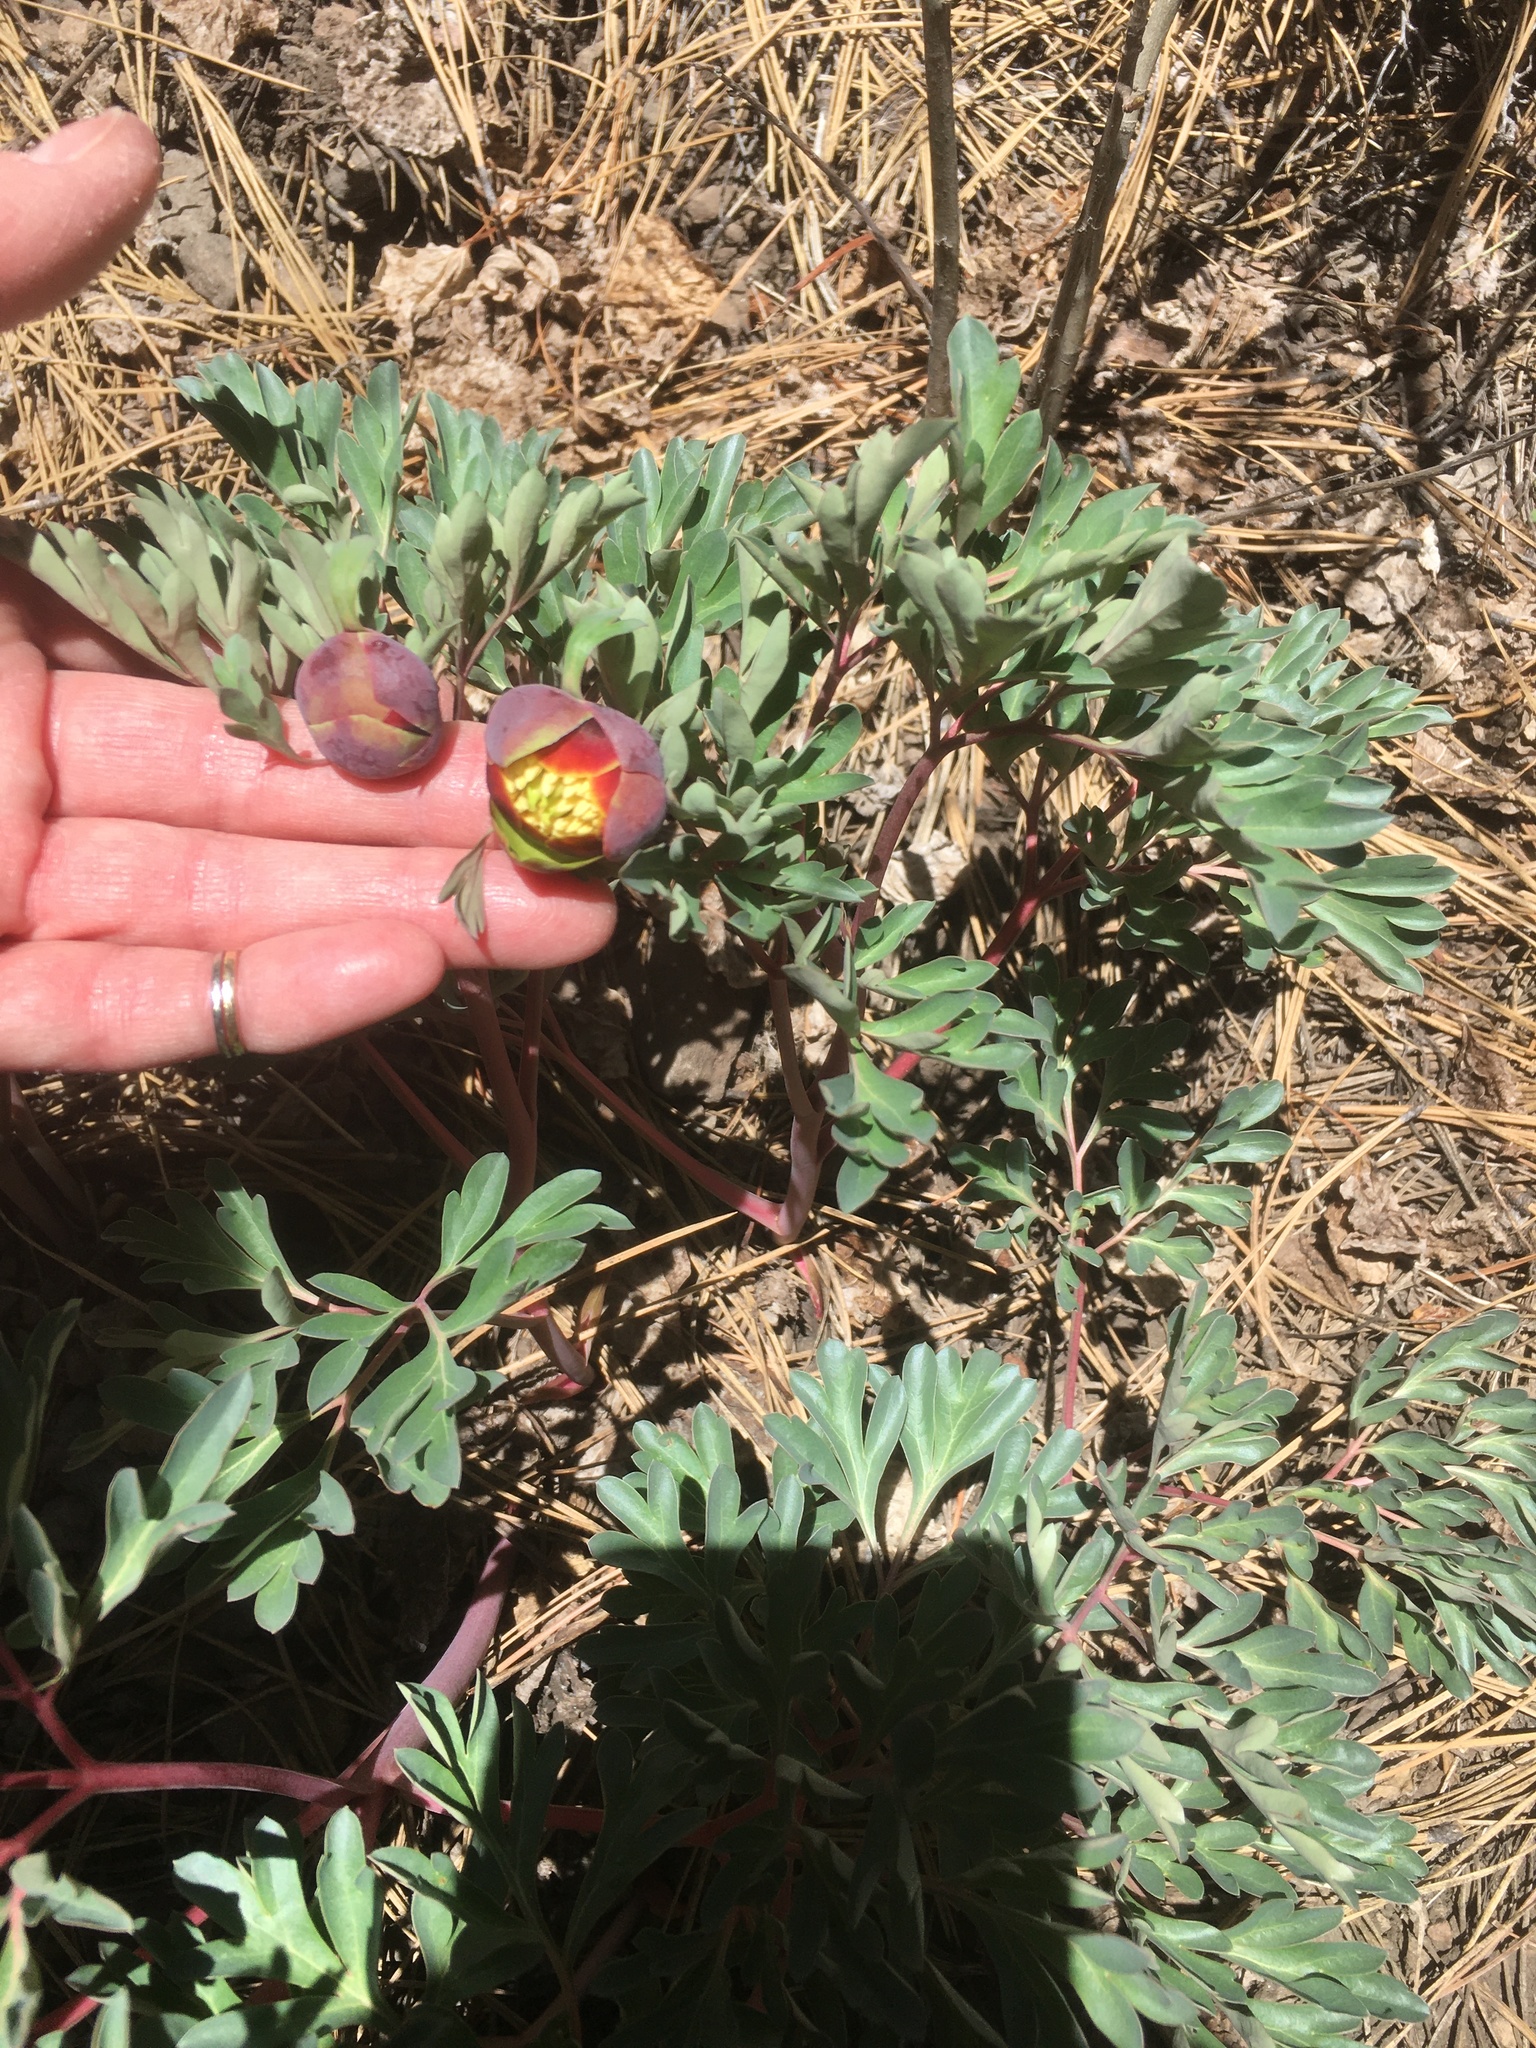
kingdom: Plantae
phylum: Tracheophyta
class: Magnoliopsida
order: Saxifragales
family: Paeoniaceae
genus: Paeonia
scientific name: Paeonia brownii
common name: Brown's peony
